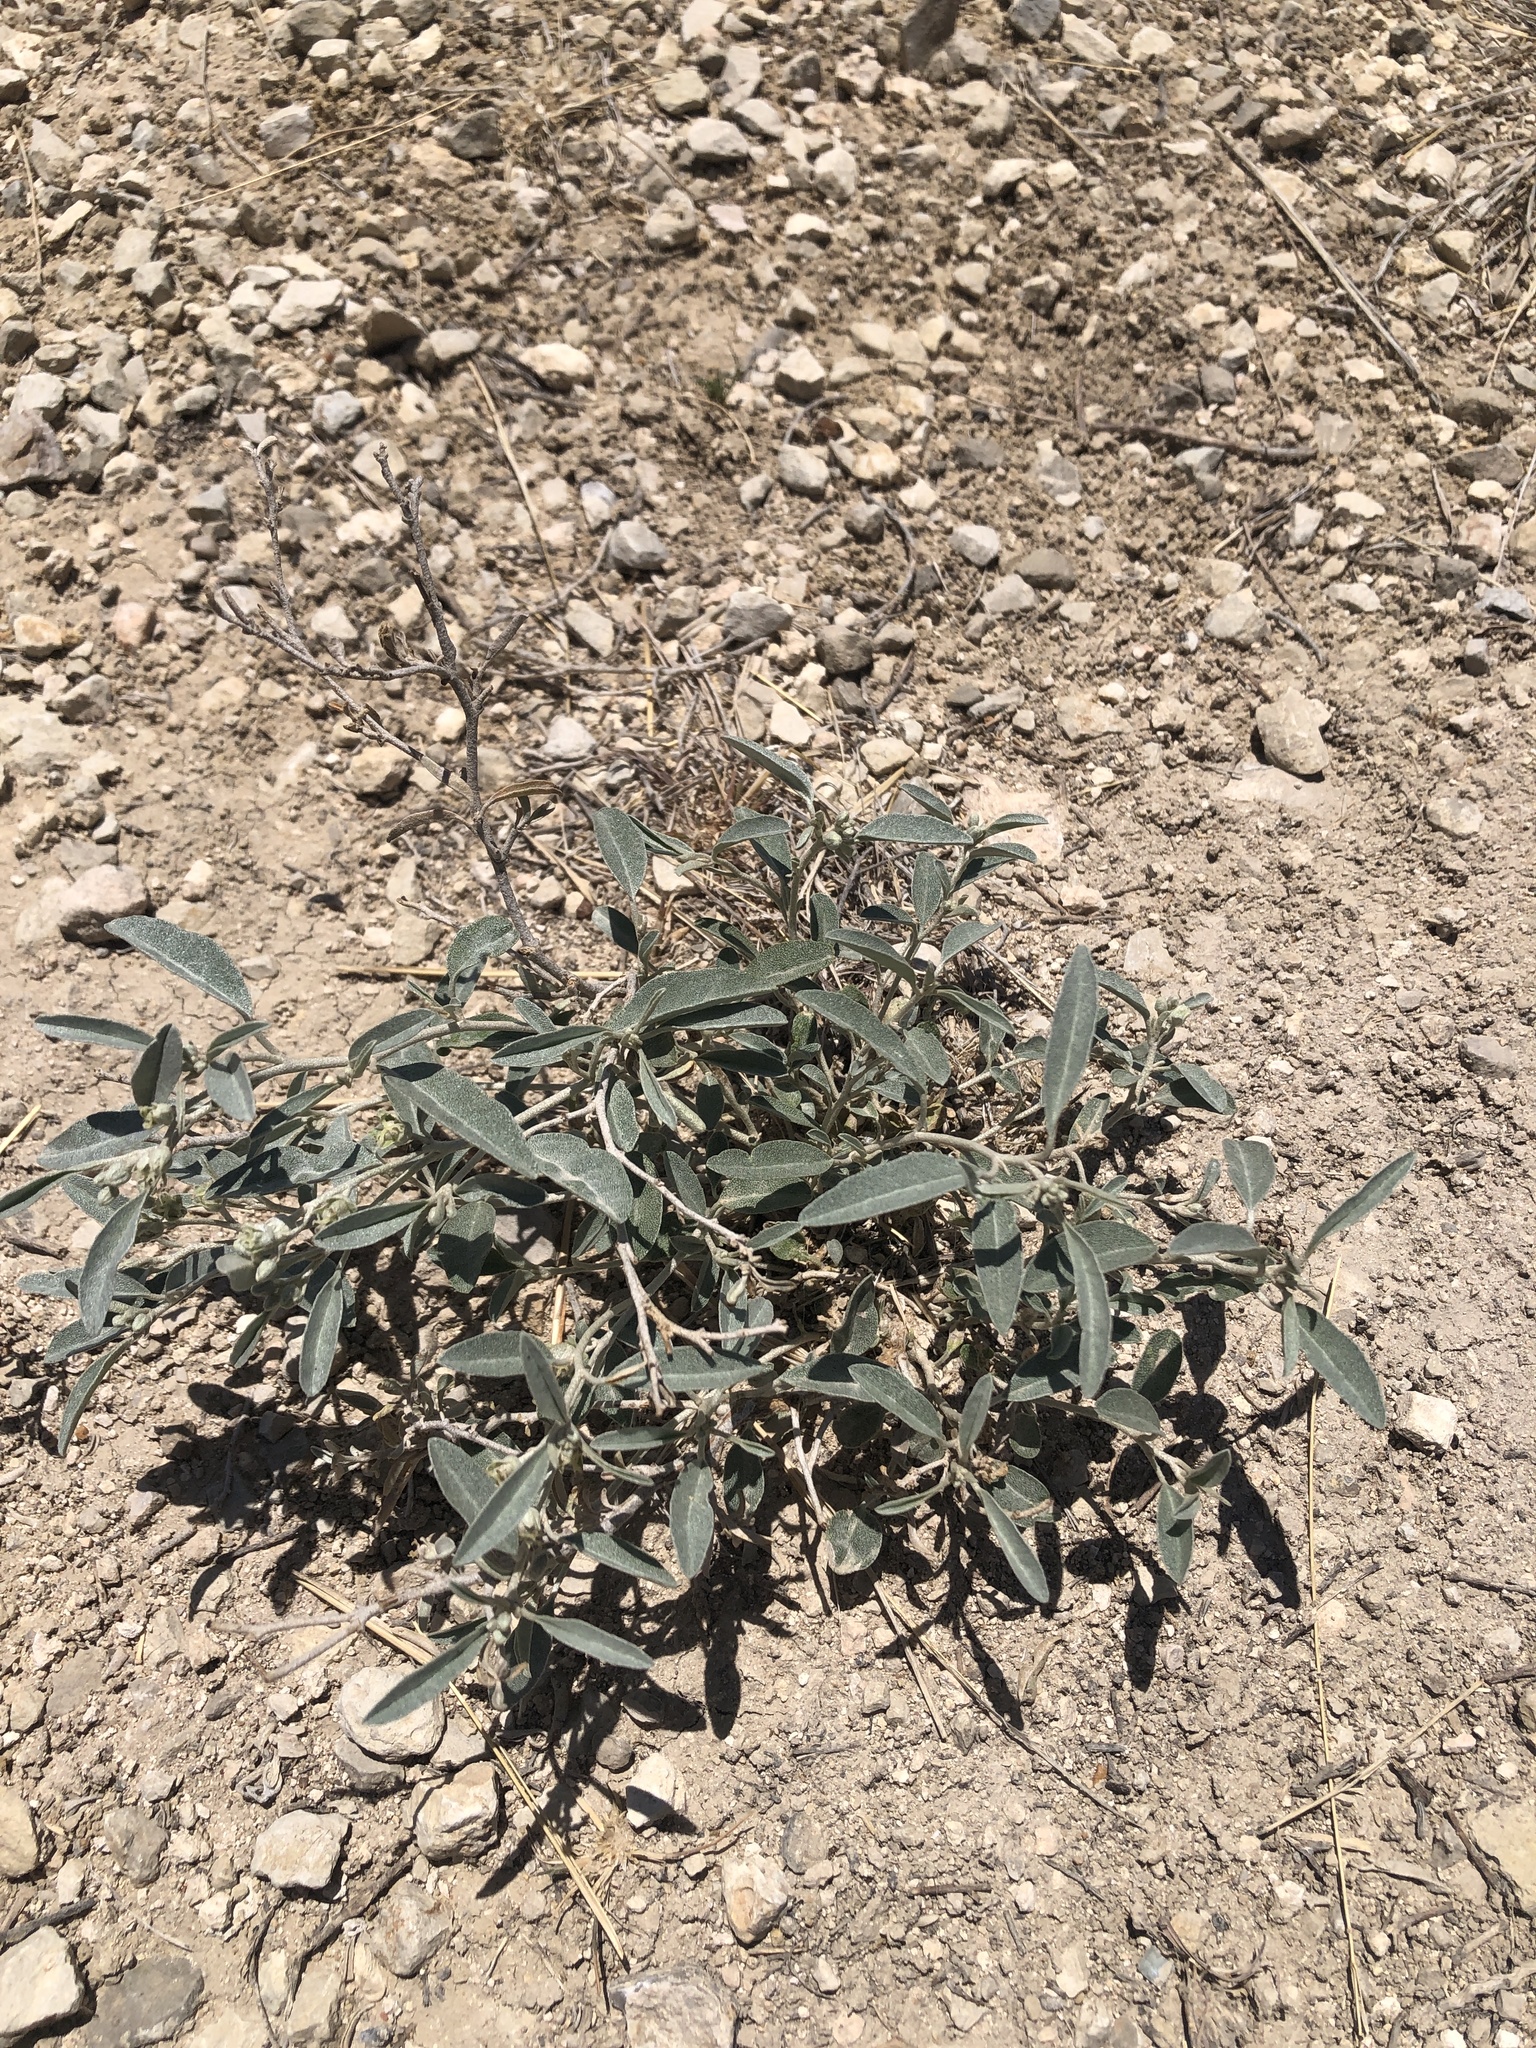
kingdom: Plantae
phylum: Tracheophyta
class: Magnoliopsida
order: Malpighiales
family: Euphorbiaceae
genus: Croton
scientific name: Croton dioicus
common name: Grassland croton
